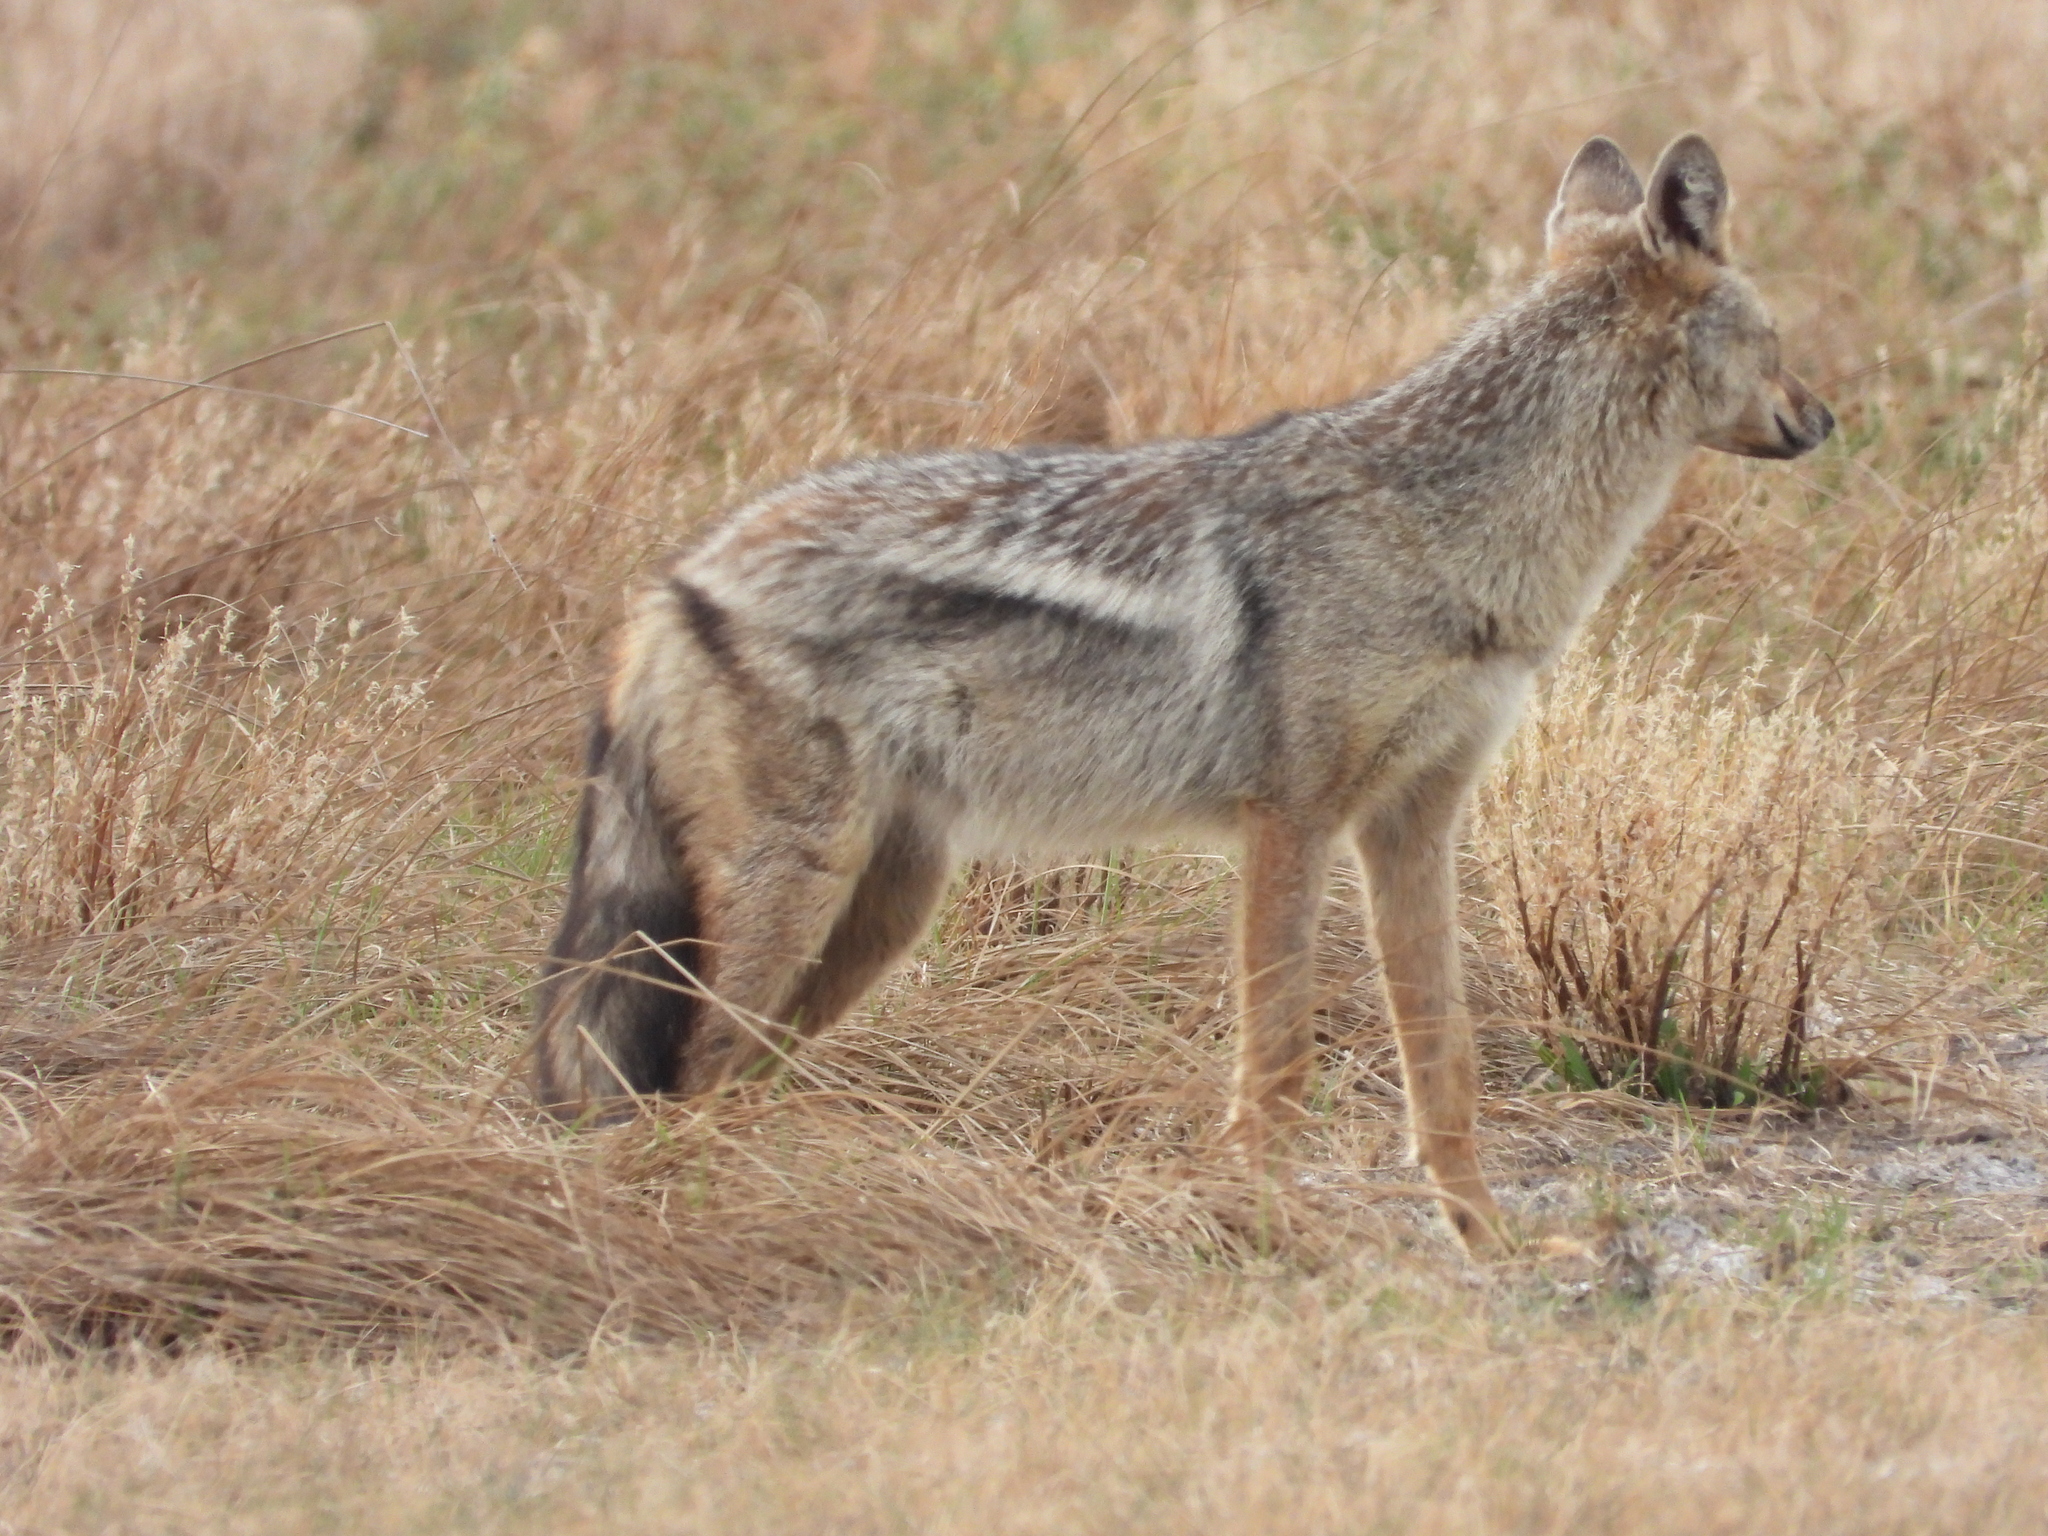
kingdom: Animalia
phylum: Chordata
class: Mammalia
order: Carnivora
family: Canidae
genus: Lupulella
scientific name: Lupulella
